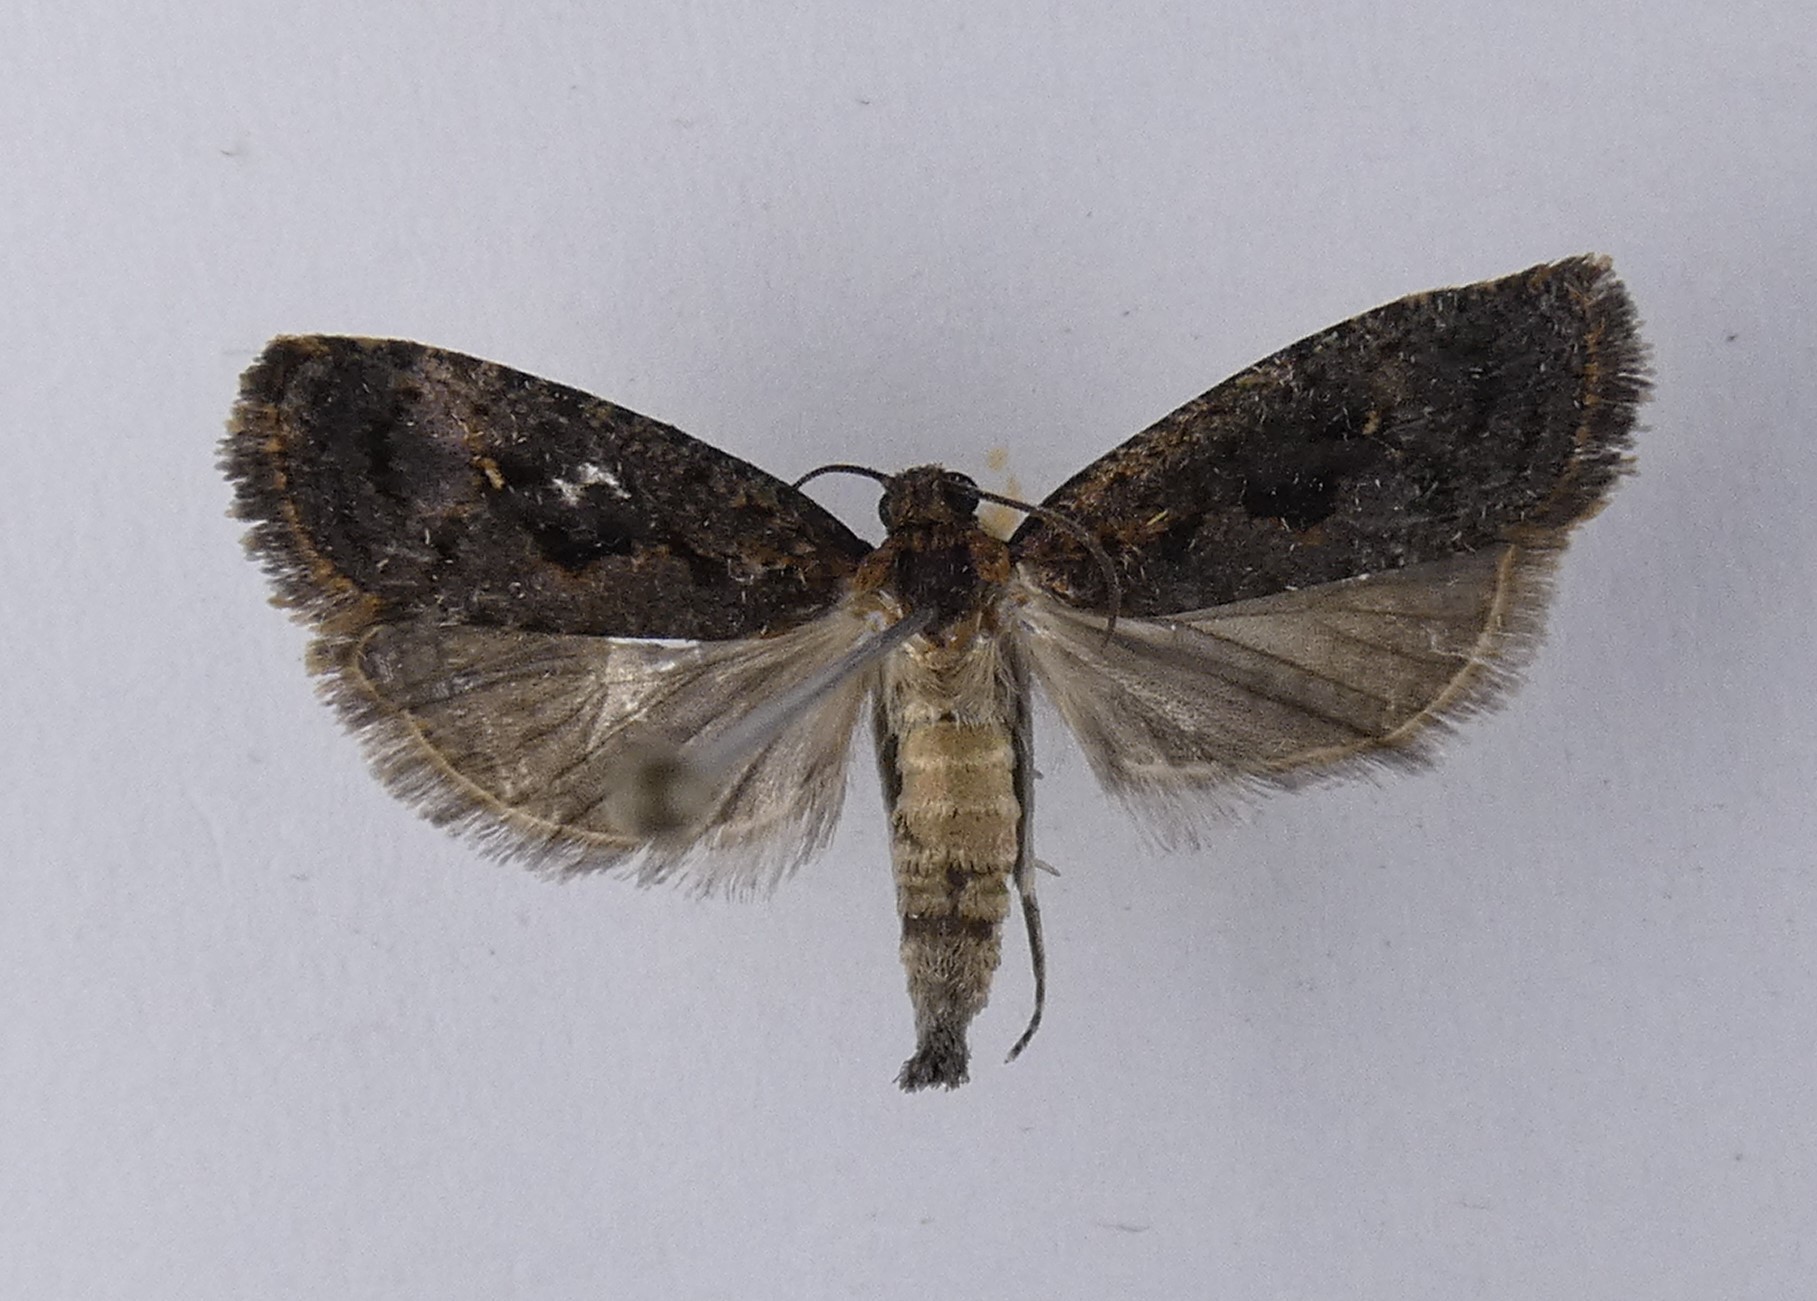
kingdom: Animalia
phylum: Arthropoda
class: Insecta
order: Lepidoptera
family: Tortricidae
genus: Cryptaspasma
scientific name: Cryptaspasma querula
